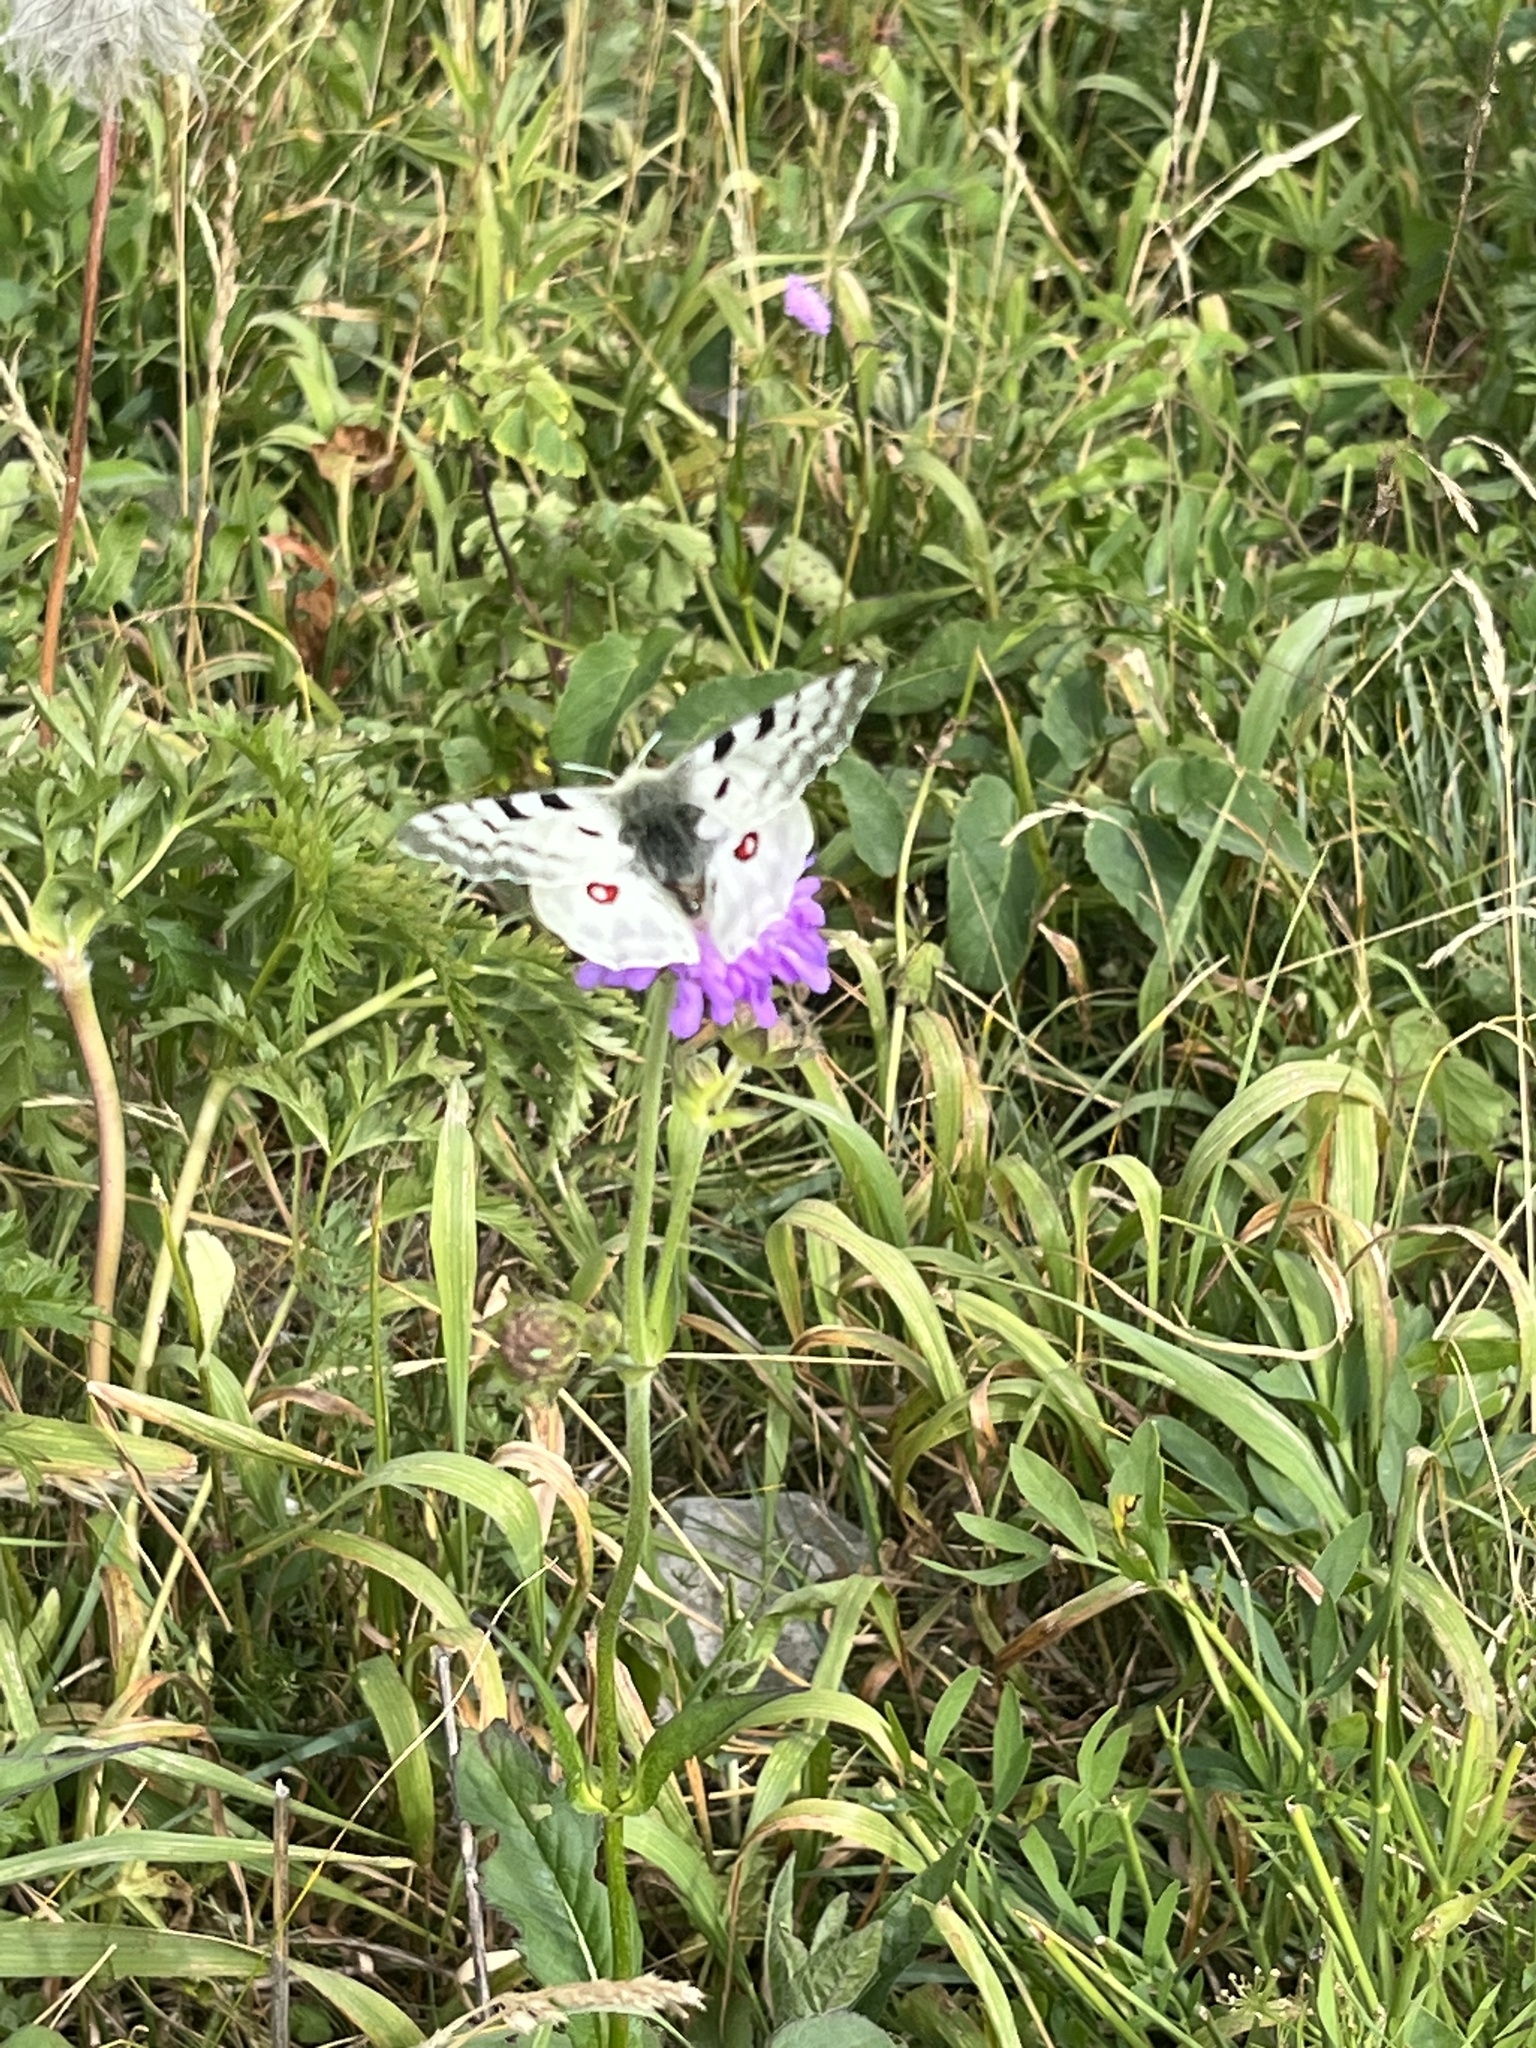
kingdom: Animalia
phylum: Arthropoda
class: Insecta
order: Lepidoptera
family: Papilionidae
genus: Parnassius
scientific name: Parnassius apollo
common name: Apollo
